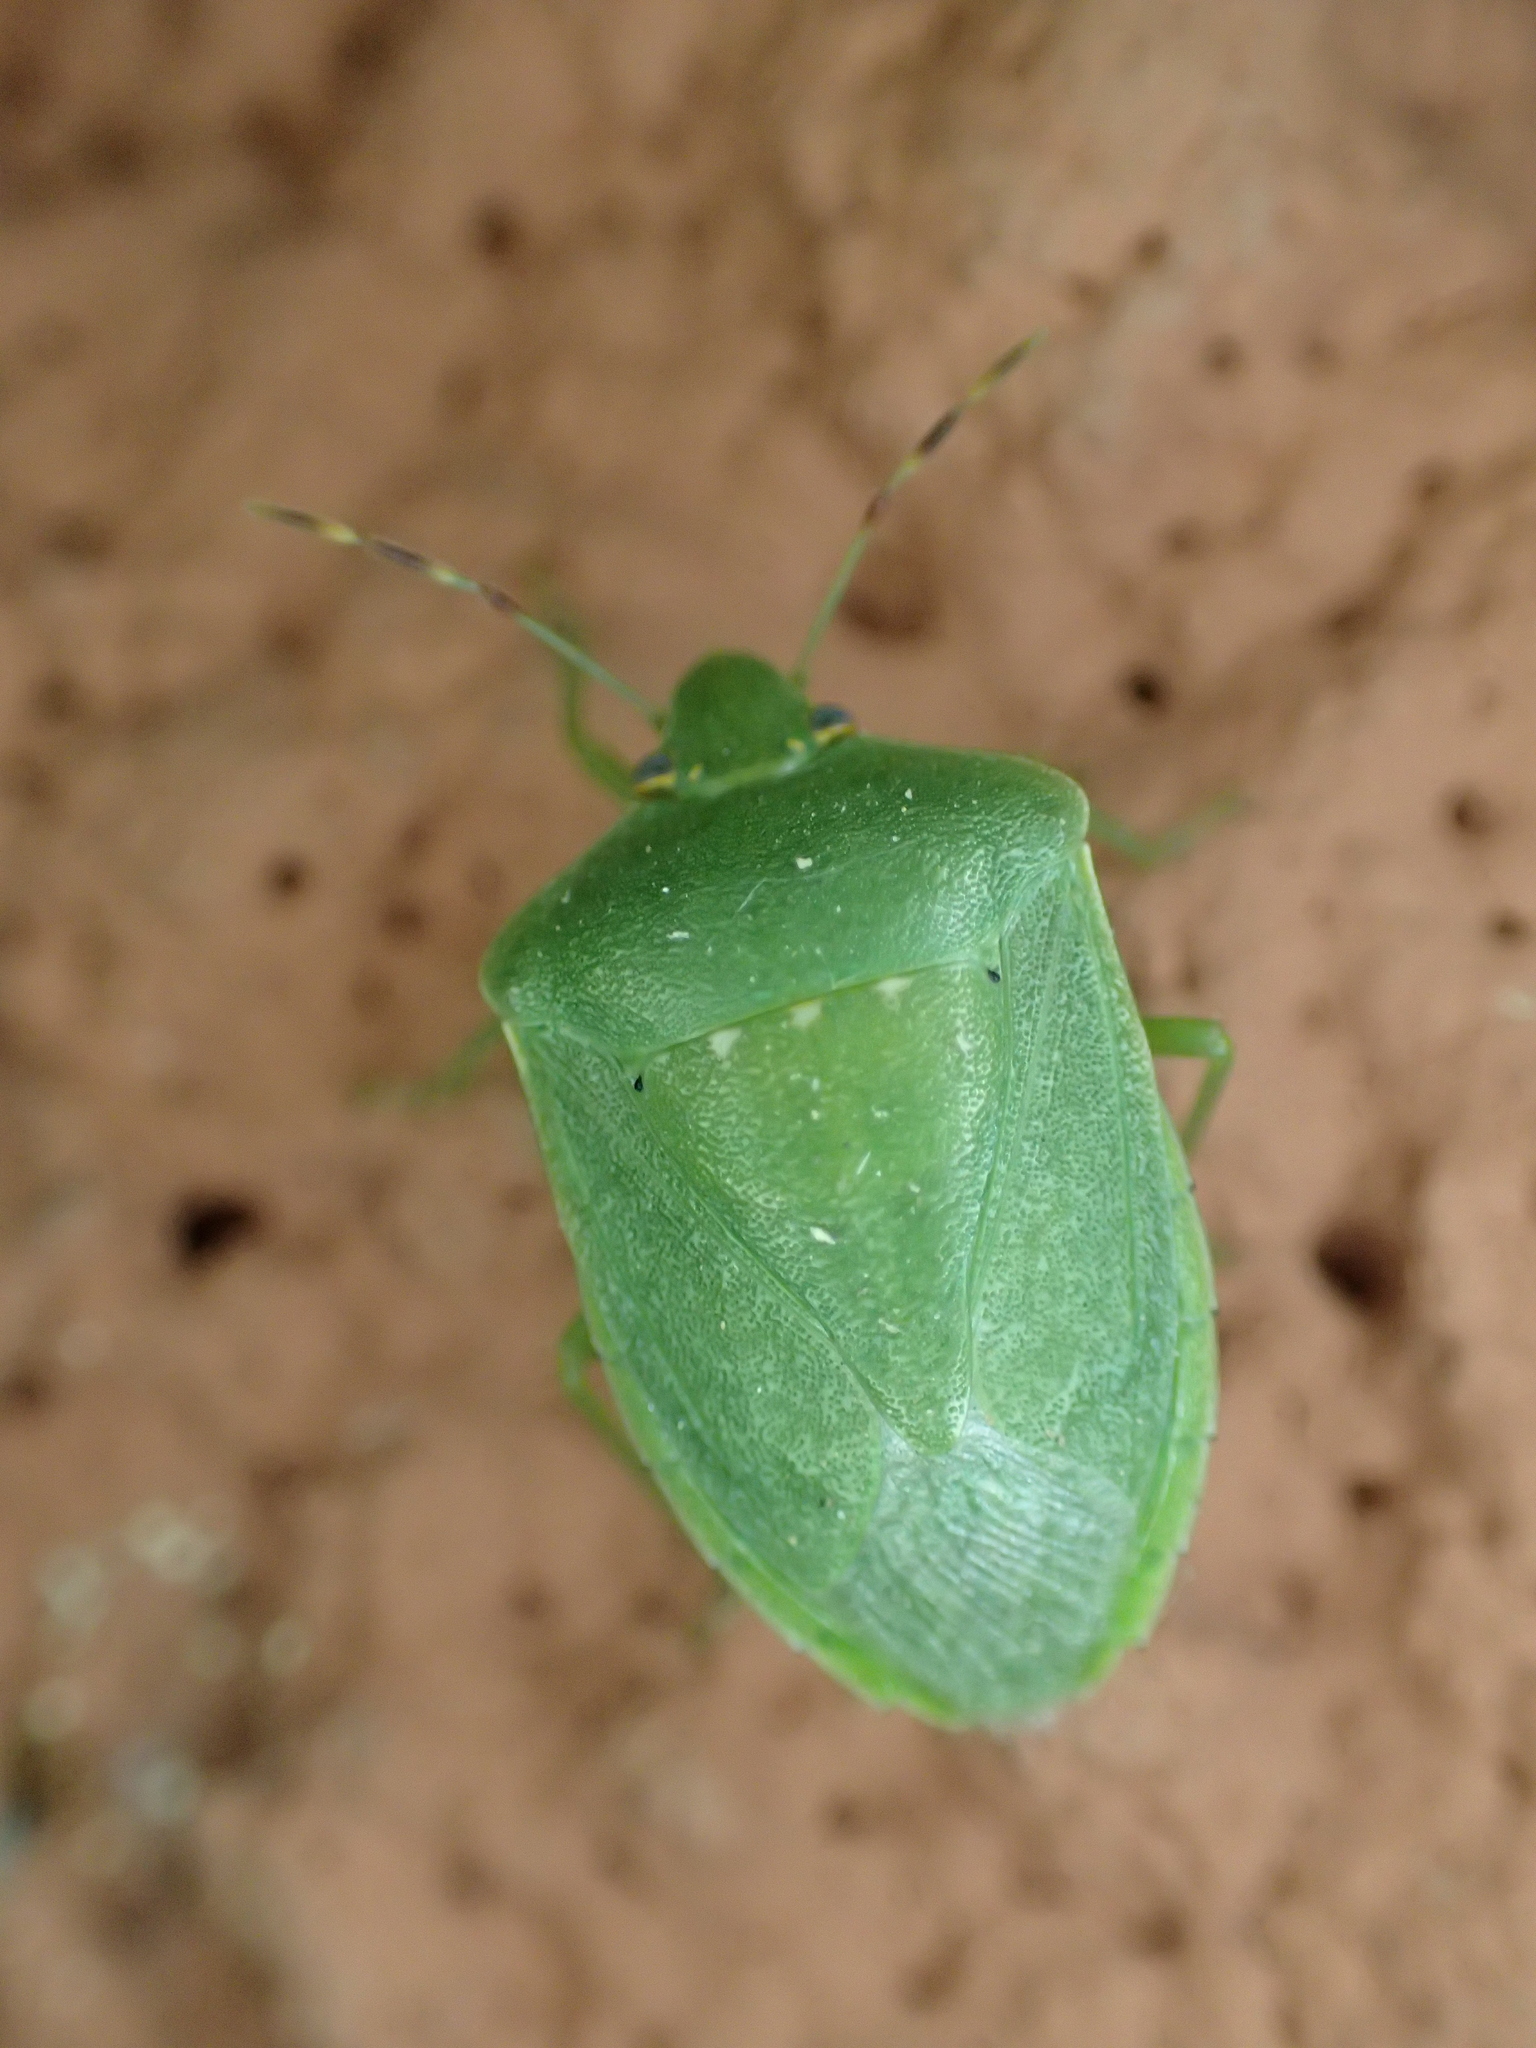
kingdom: Animalia
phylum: Arthropoda
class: Insecta
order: Hemiptera
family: Pentatomidae
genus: Nezara
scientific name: Nezara viridula
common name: Southern green stink bug
